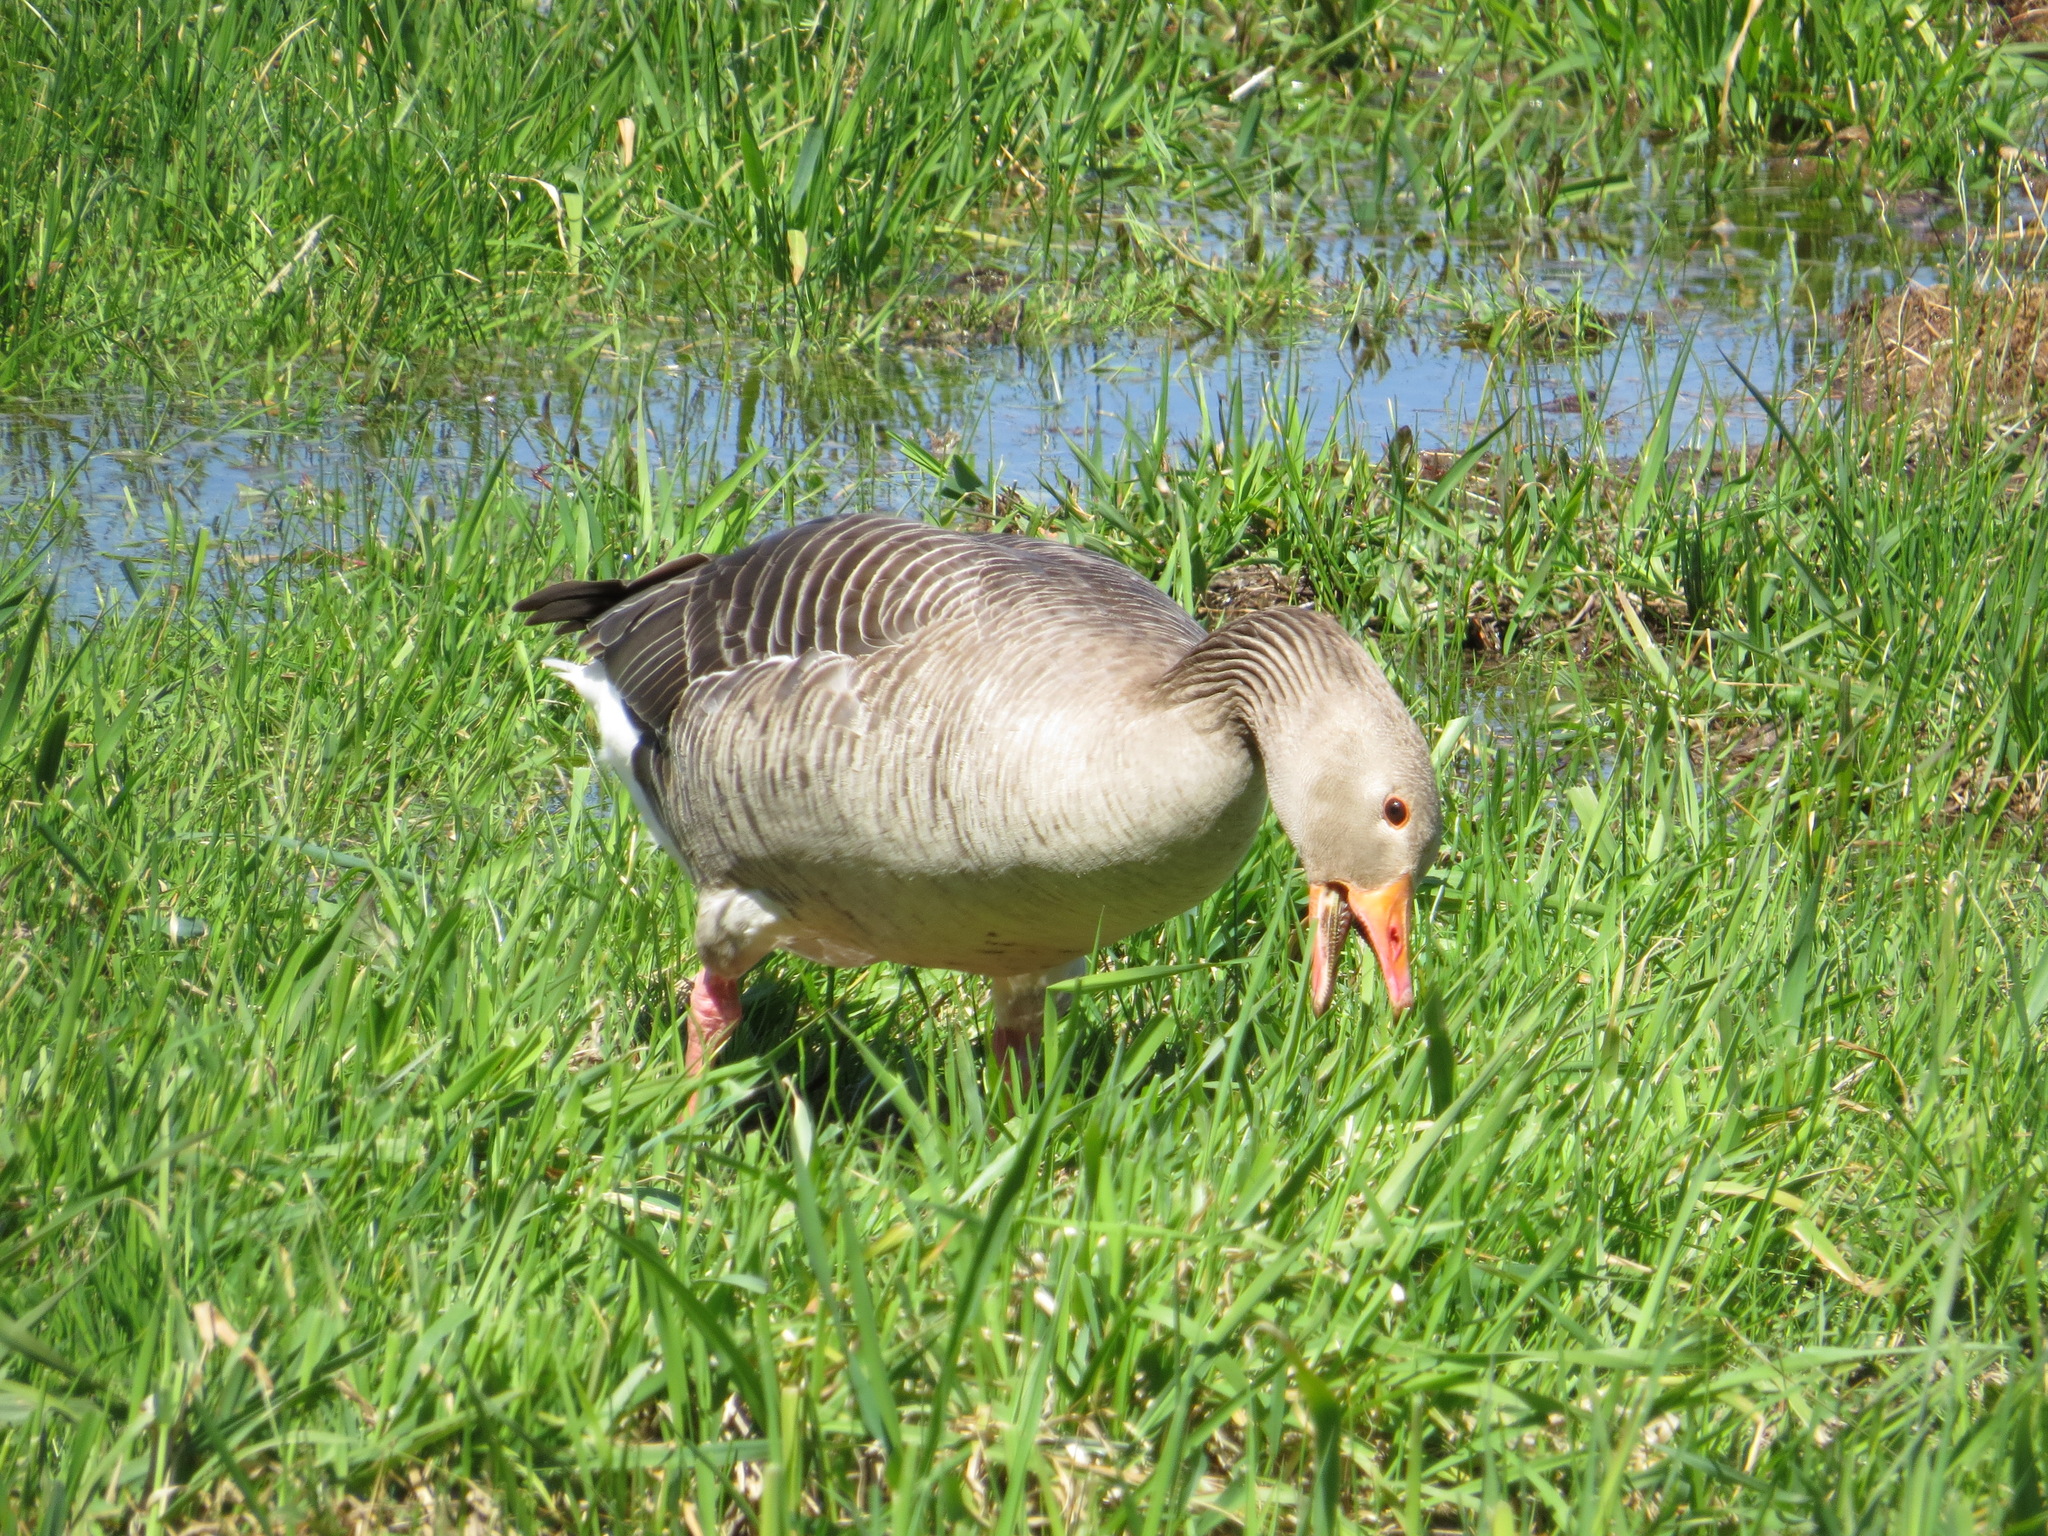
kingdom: Animalia
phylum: Chordata
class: Aves
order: Anseriformes
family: Anatidae
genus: Anser
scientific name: Anser anser
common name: Greylag goose
